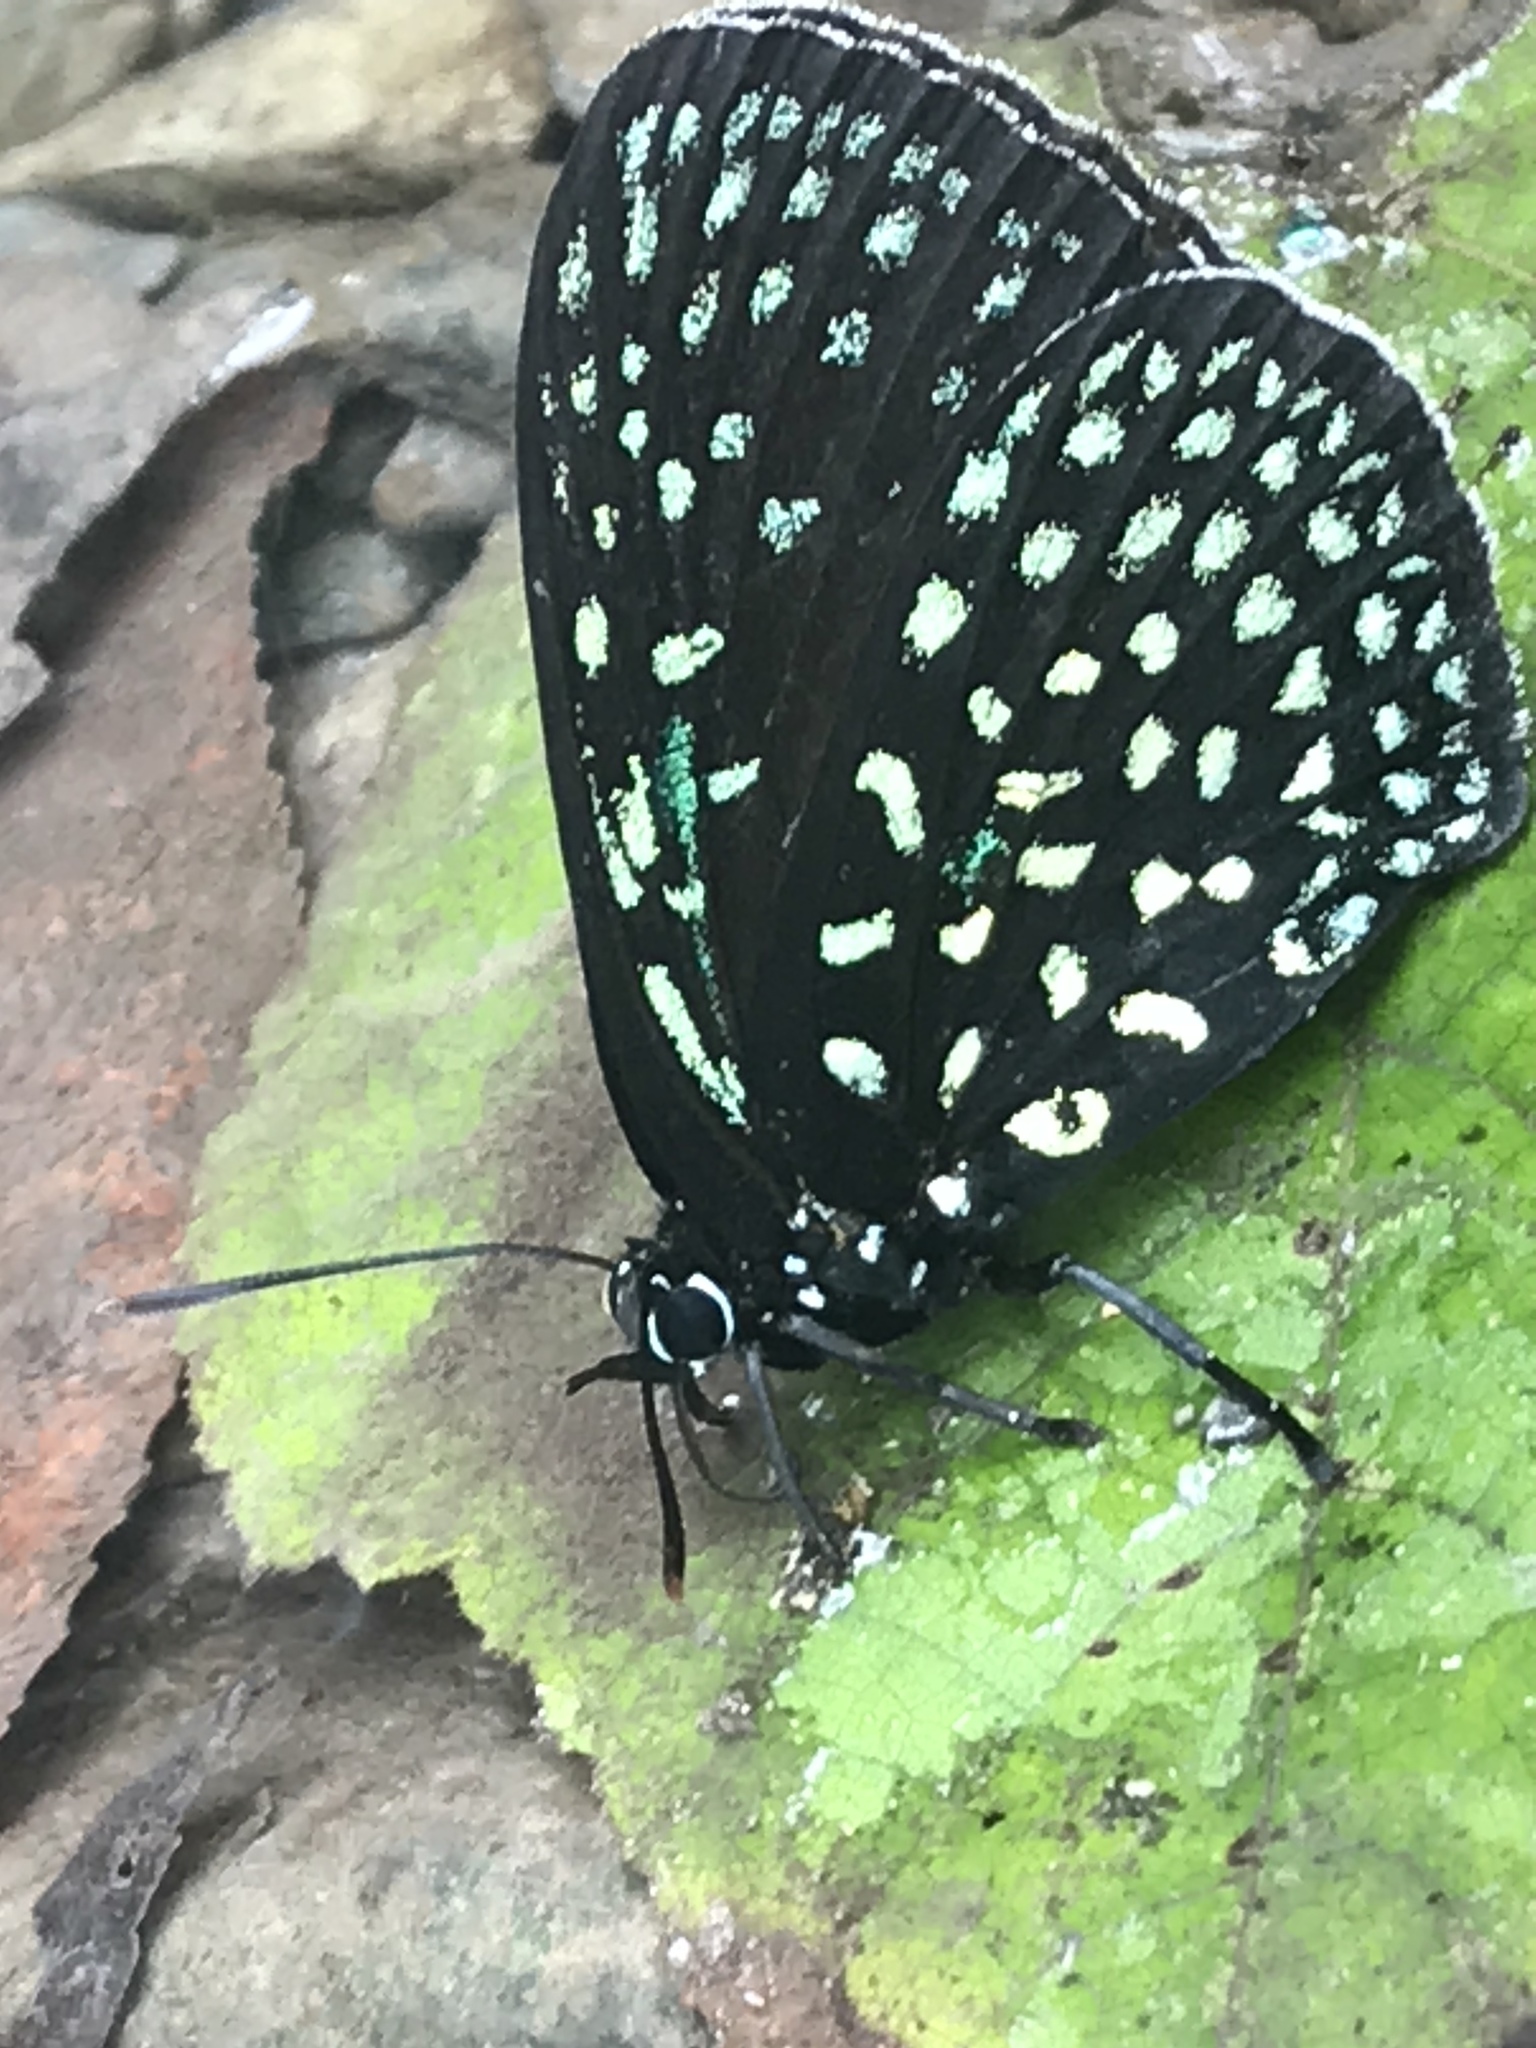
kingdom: Animalia
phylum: Arthropoda
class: Insecta
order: Lepidoptera
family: Lycaenidae
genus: Eumaeus
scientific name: Eumaeus childrenae
